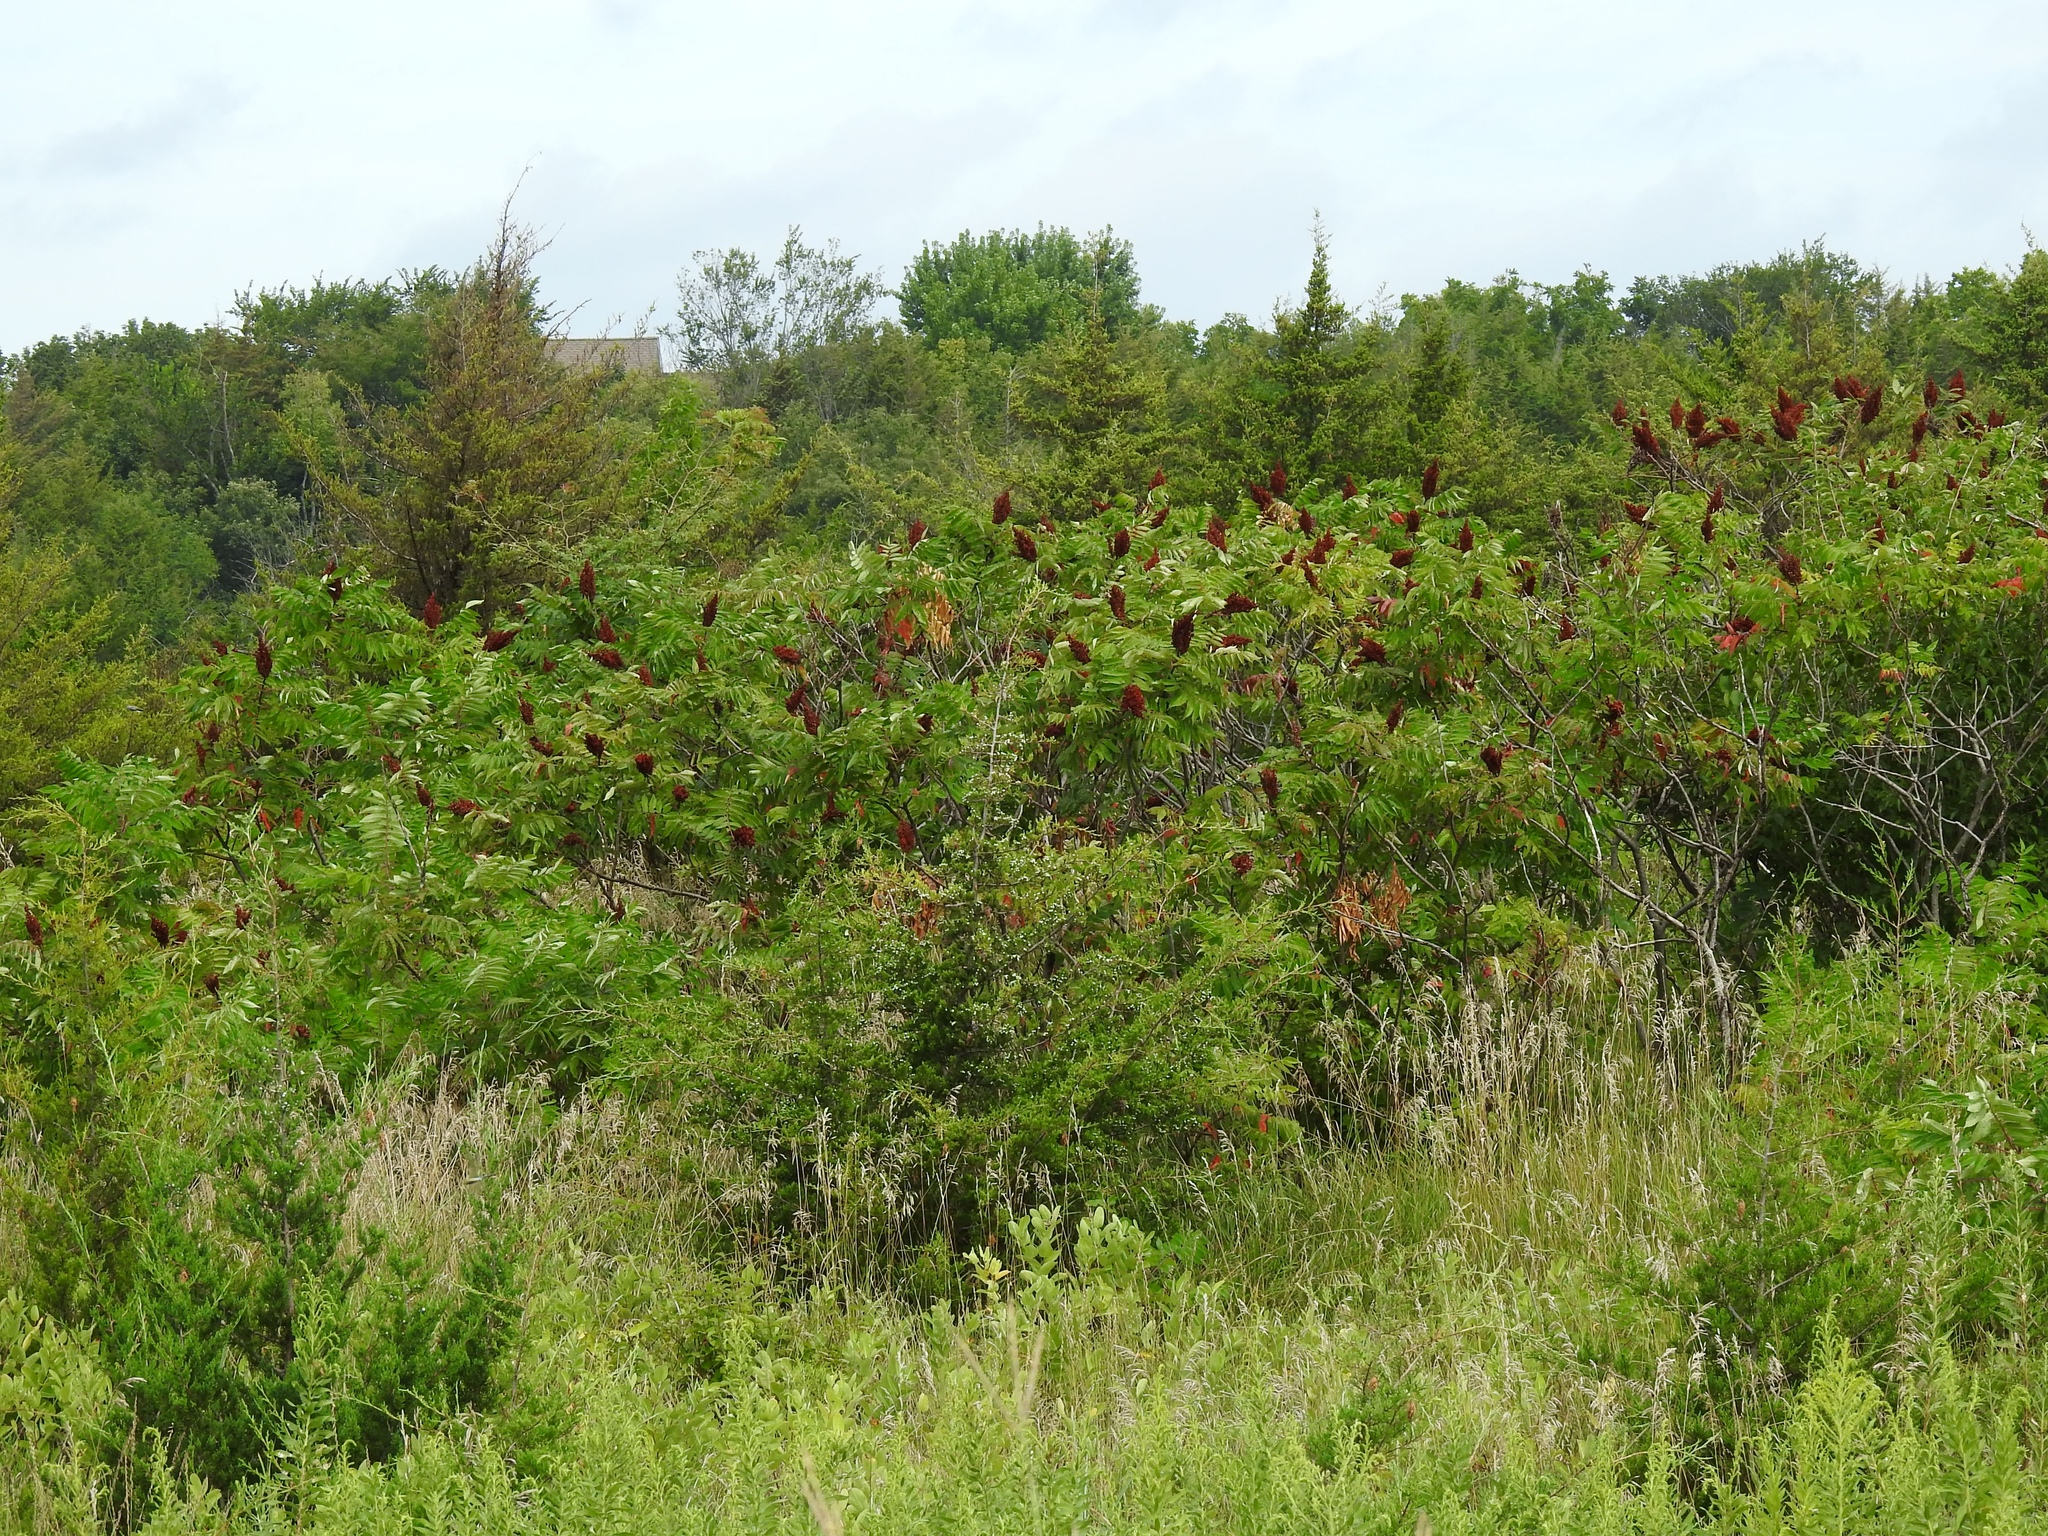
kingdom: Plantae
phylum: Tracheophyta
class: Magnoliopsida
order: Sapindales
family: Anacardiaceae
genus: Rhus
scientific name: Rhus glabra
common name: Scarlet sumac
